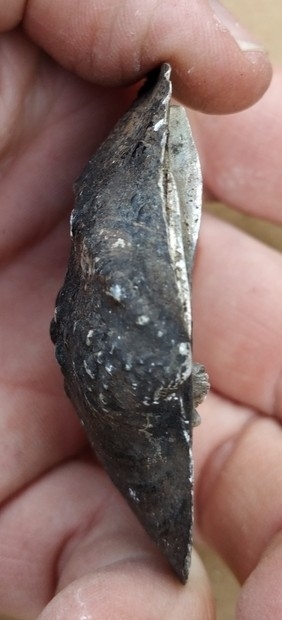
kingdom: Animalia
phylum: Mollusca
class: Bivalvia
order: Unionida
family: Unionidae
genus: Quadrula
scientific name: Quadrula quadrula
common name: Mapleleaf
